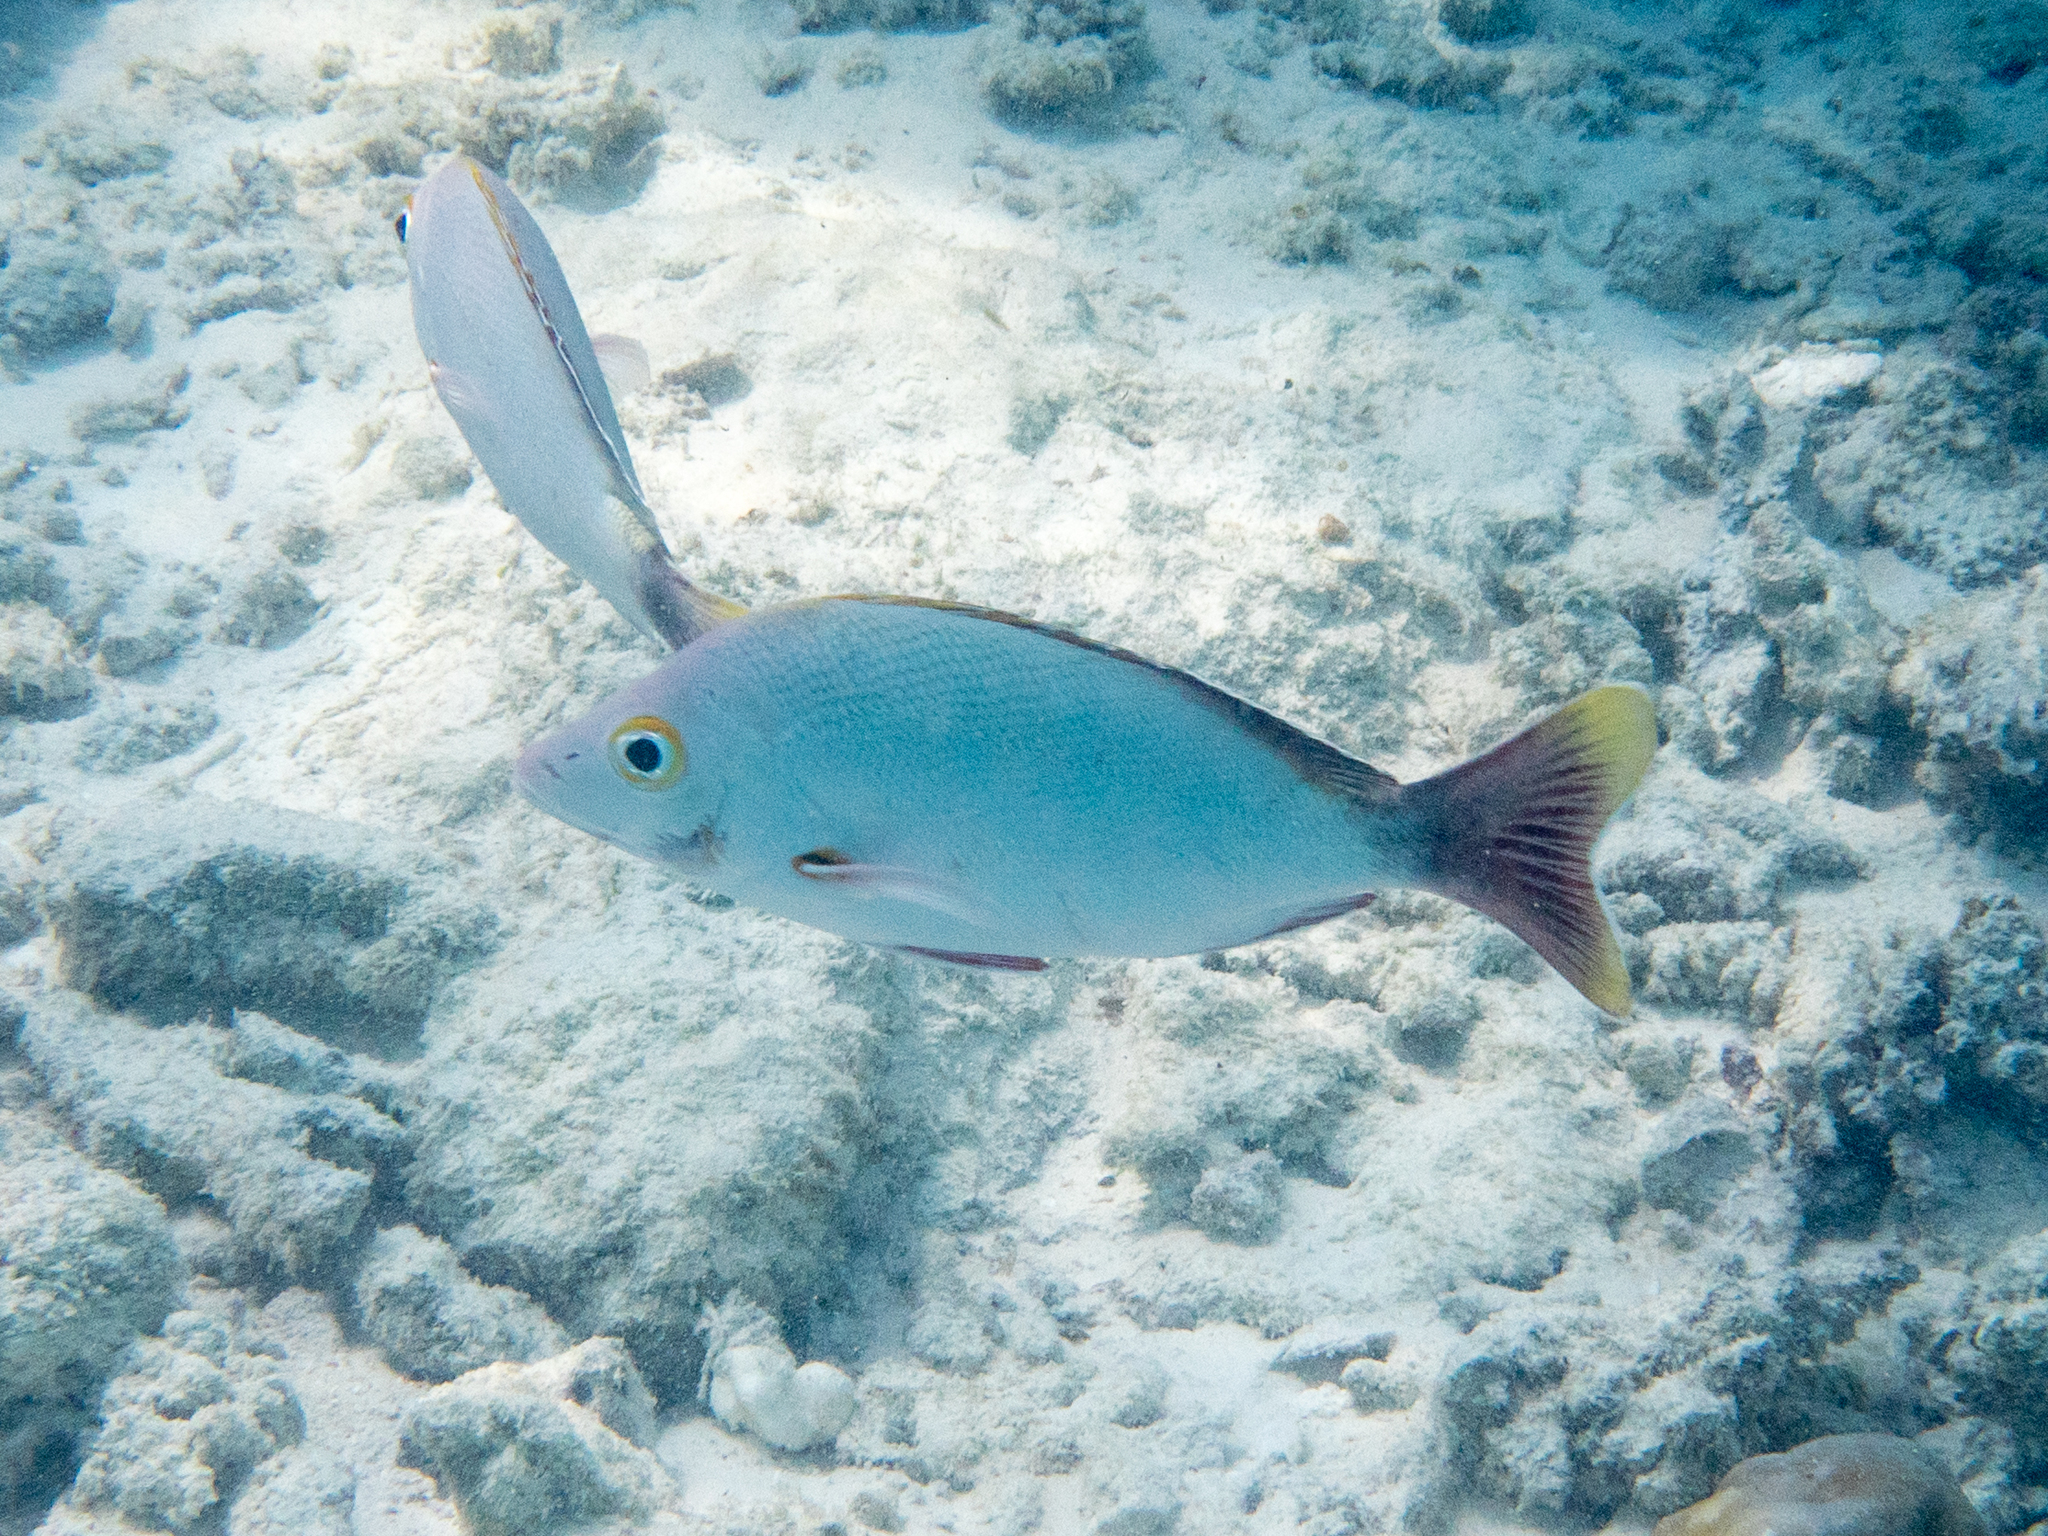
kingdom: Animalia
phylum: Chordata
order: Perciformes
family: Lutjanidae
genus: Lutjanus
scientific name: Lutjanus gibbus
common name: Humpback snapper
